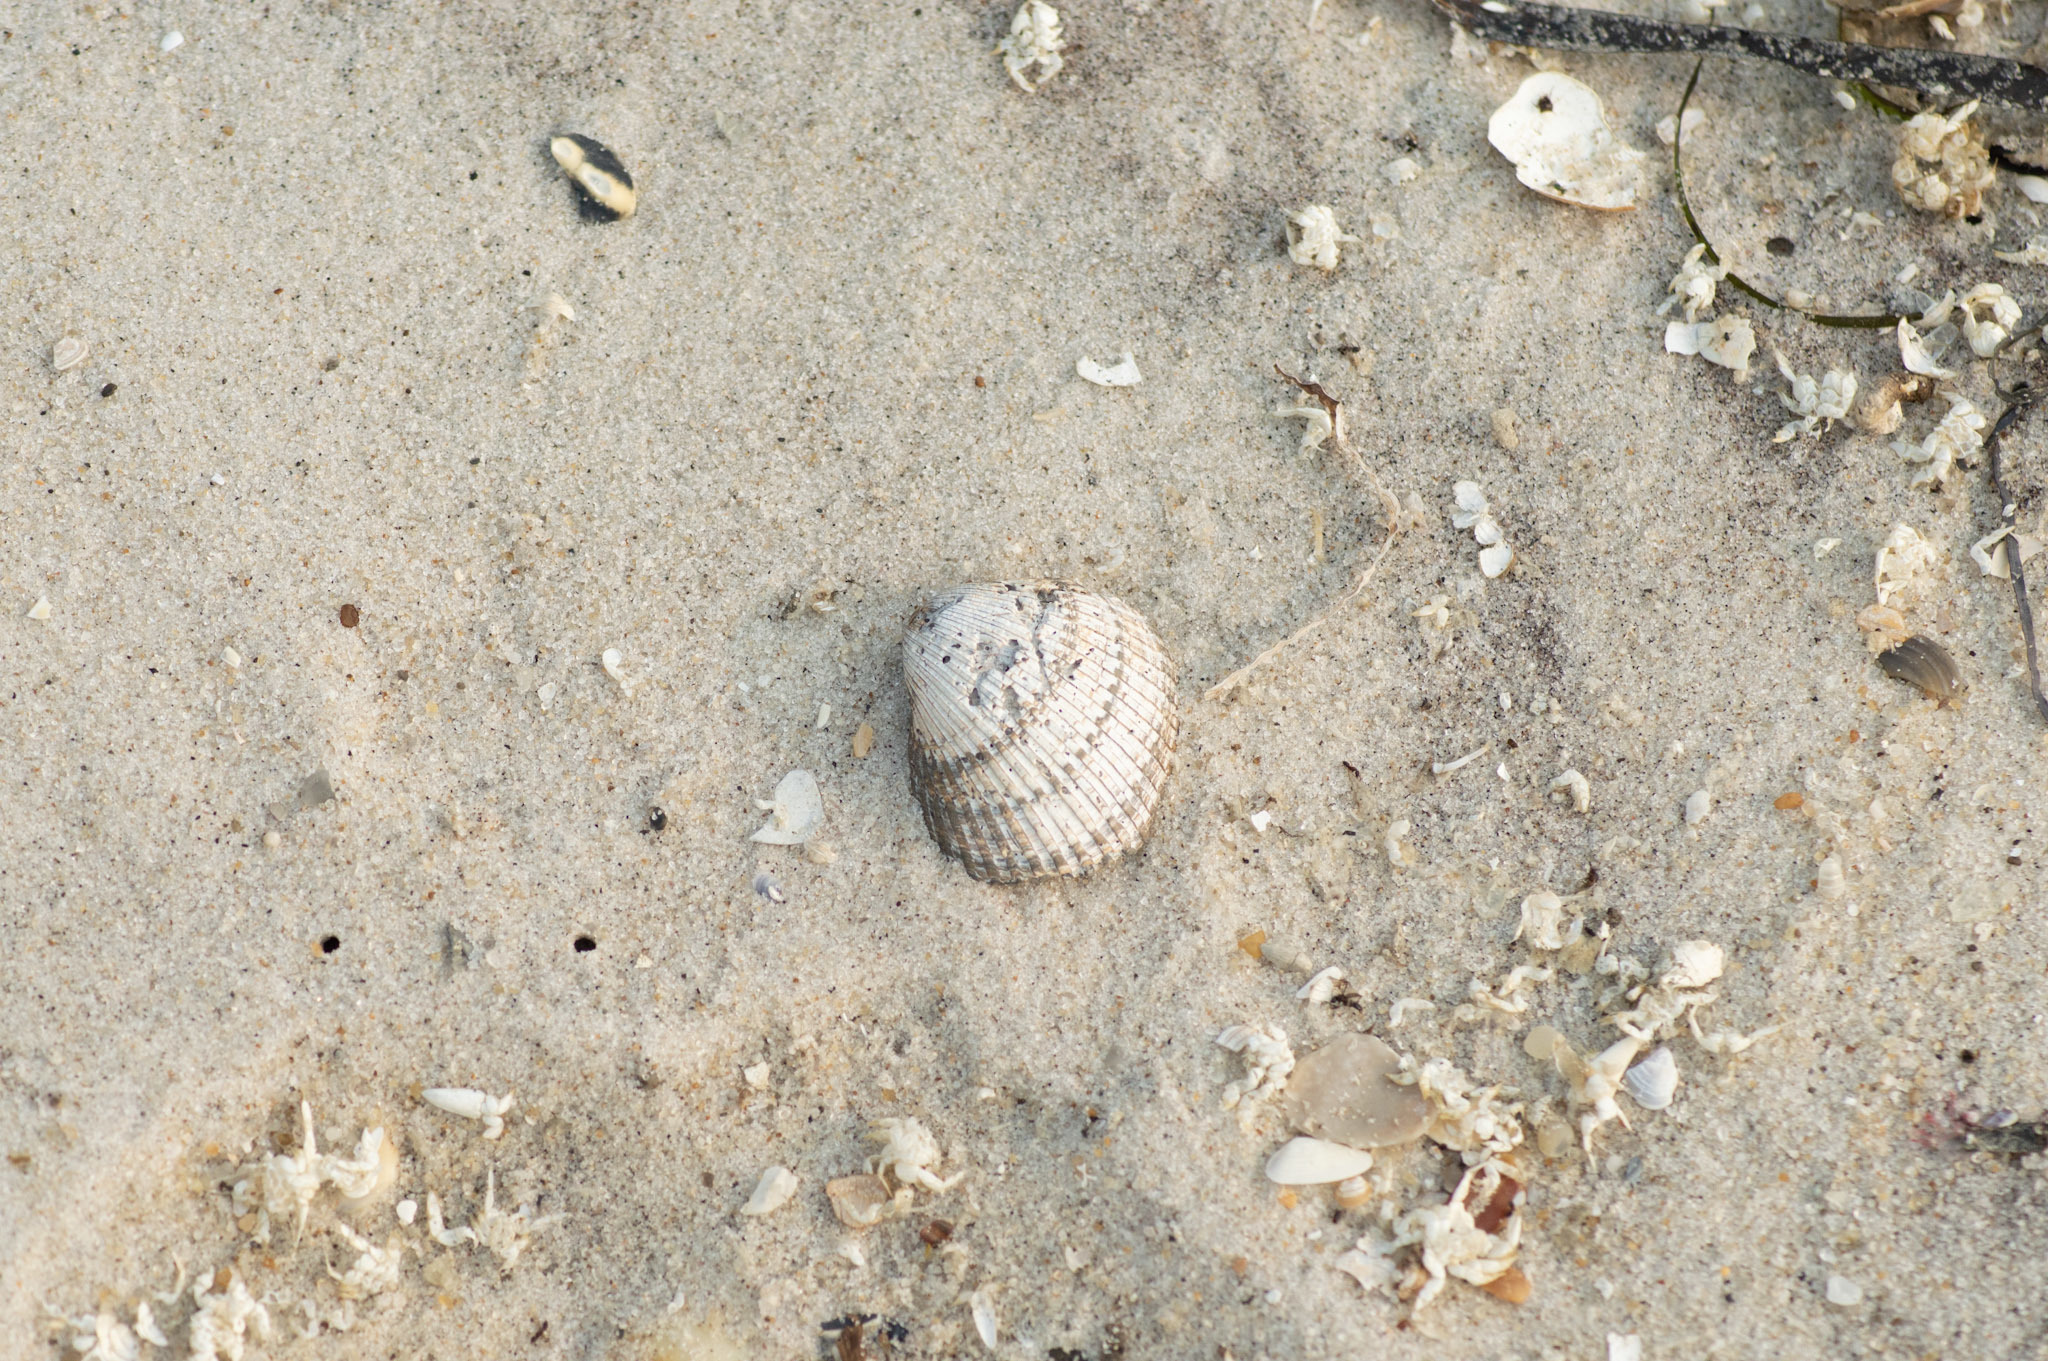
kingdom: Animalia
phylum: Mollusca
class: Bivalvia
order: Arcida
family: Arcidae
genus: Lunarca
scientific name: Lunarca ovalis
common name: Blood ark
